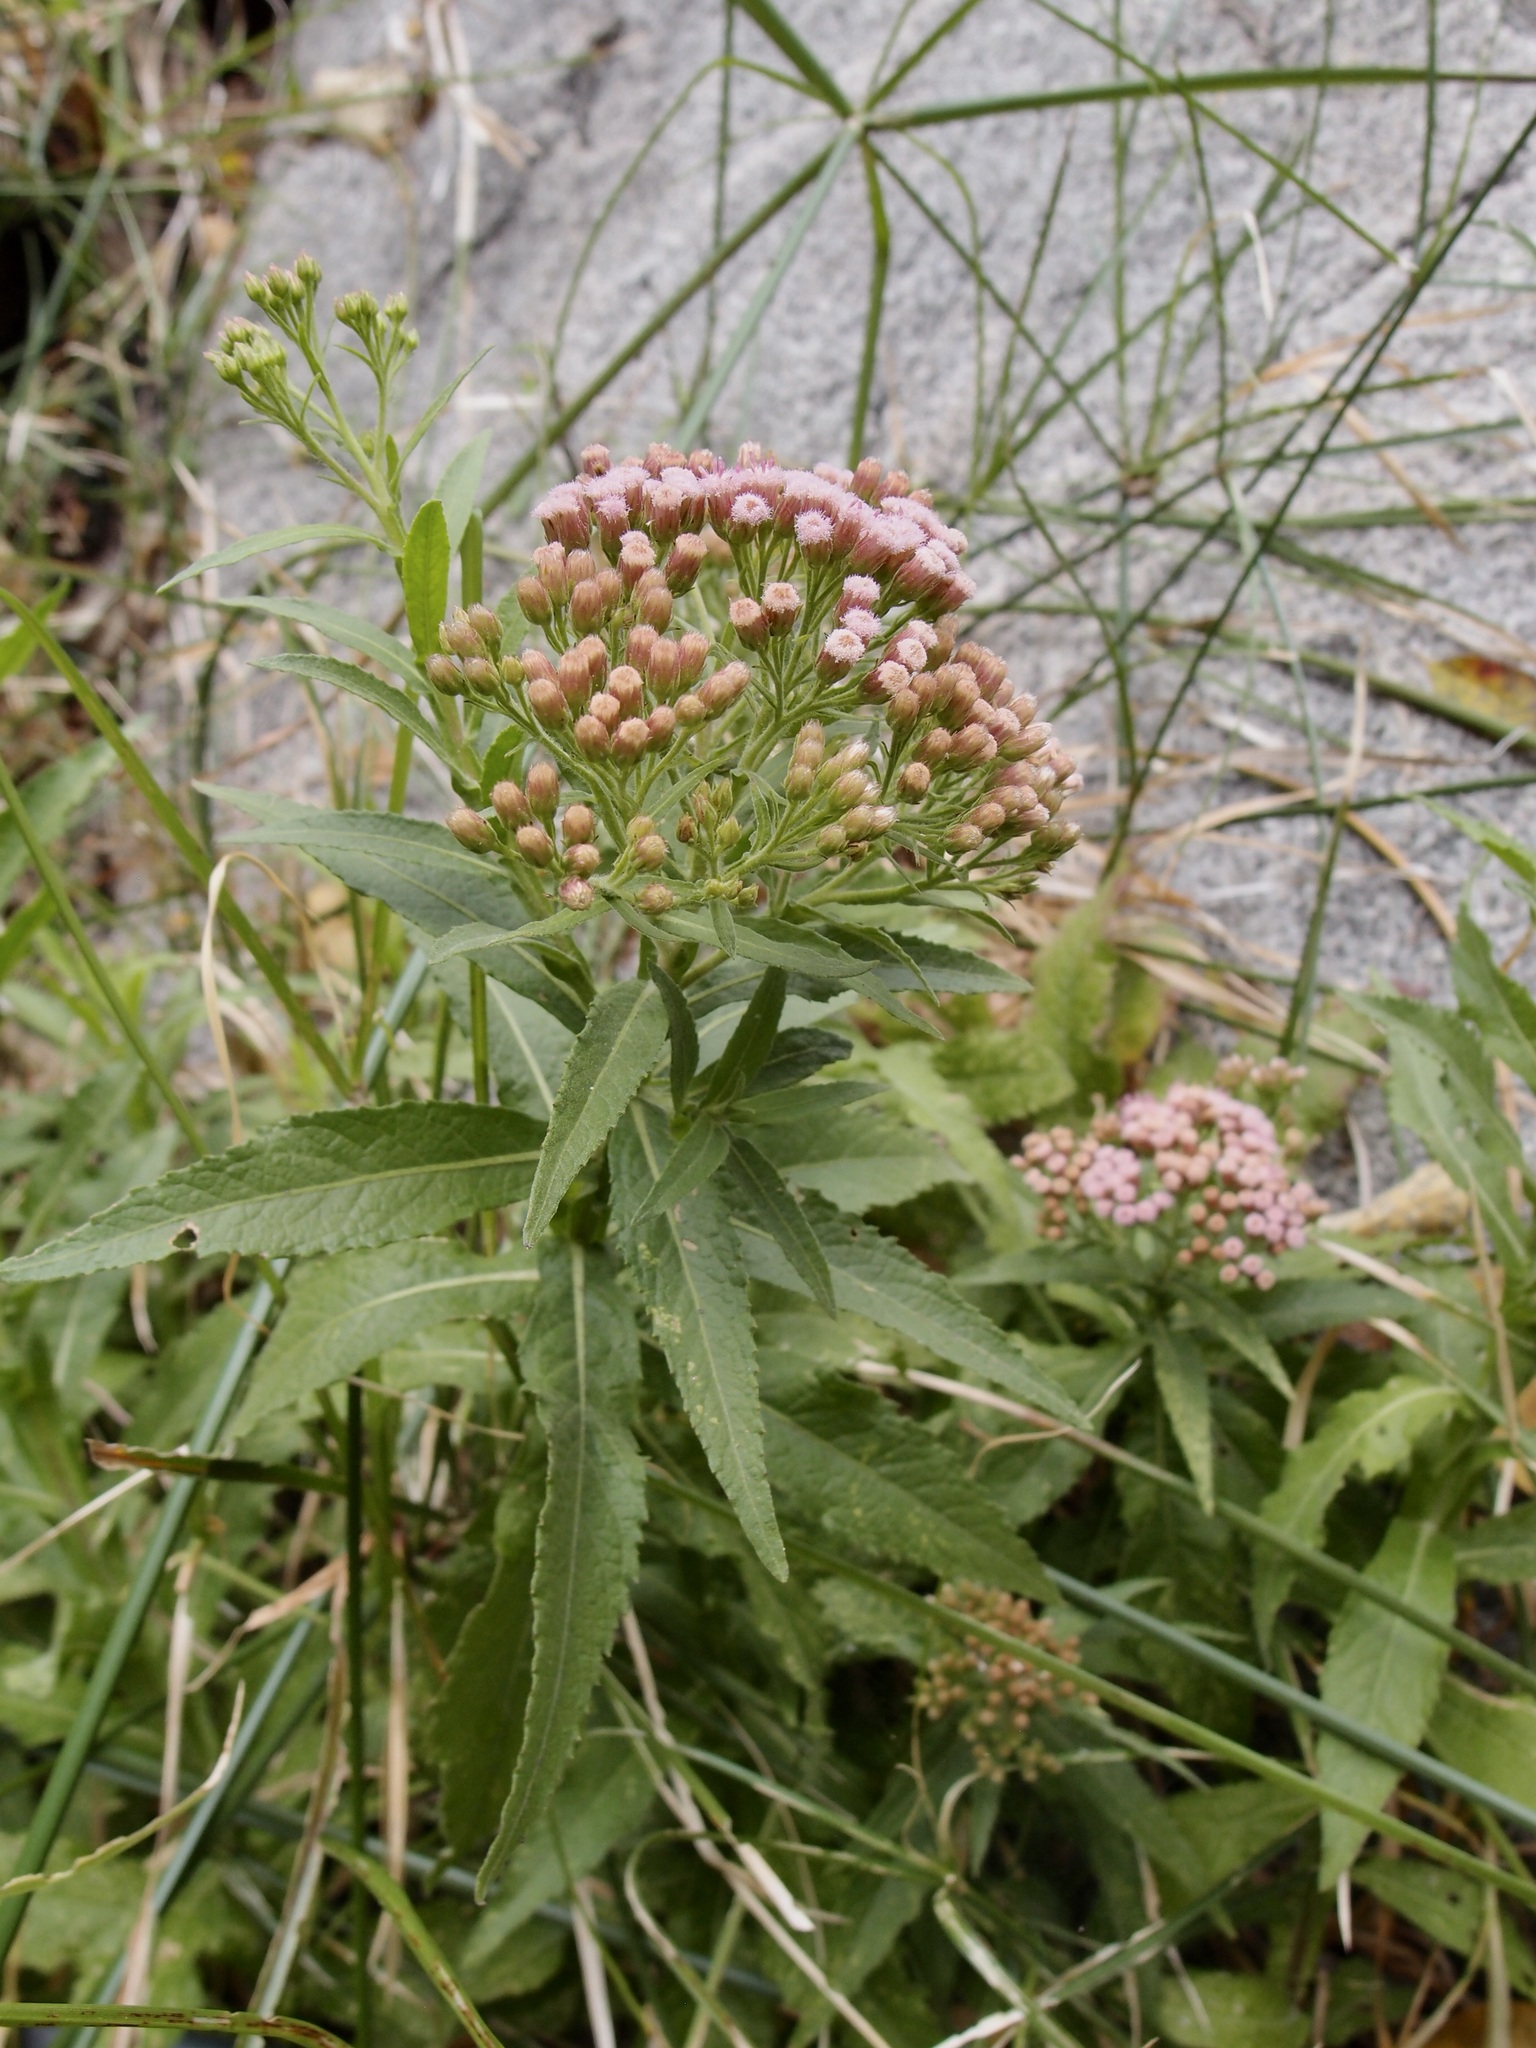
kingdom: Plantae
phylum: Tracheophyta
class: Magnoliopsida
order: Asterales
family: Asteraceae
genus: Pluchea
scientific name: Pluchea salicifolia
